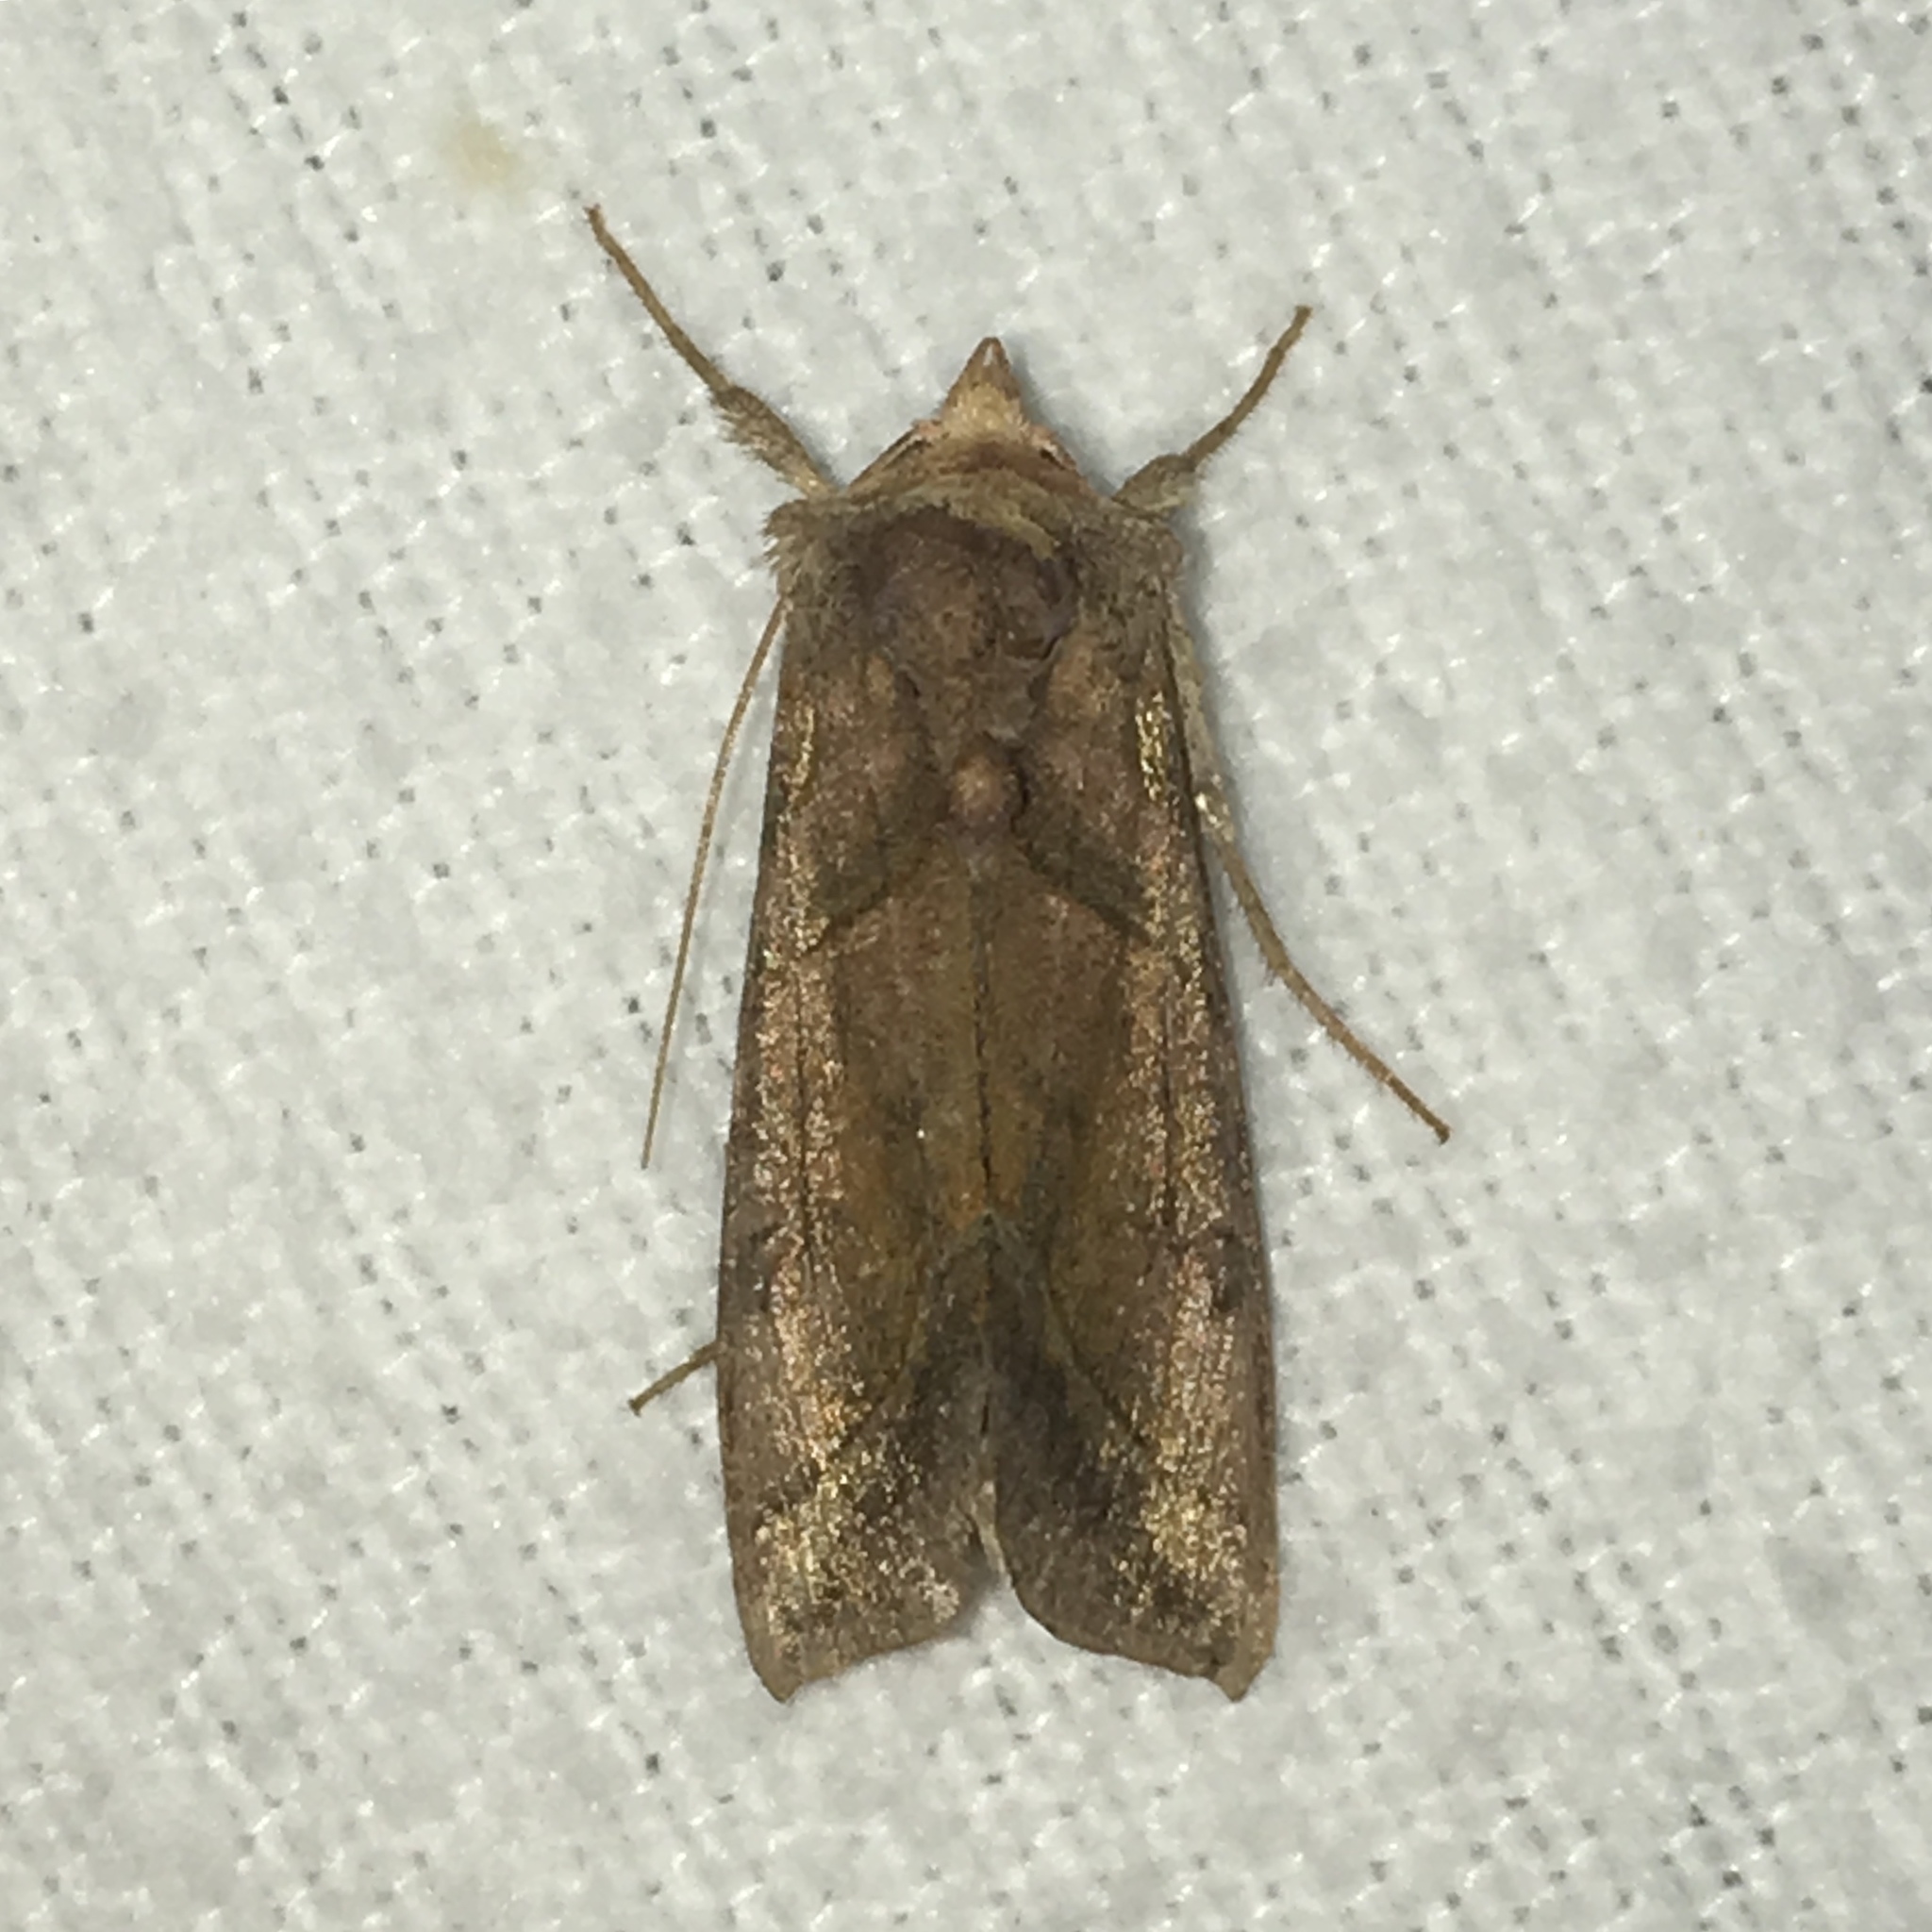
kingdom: Animalia
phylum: Arthropoda
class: Insecta
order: Lepidoptera
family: Noctuidae
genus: Diachrysia
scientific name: Diachrysia aereoides
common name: Dark-spotted looper moth
